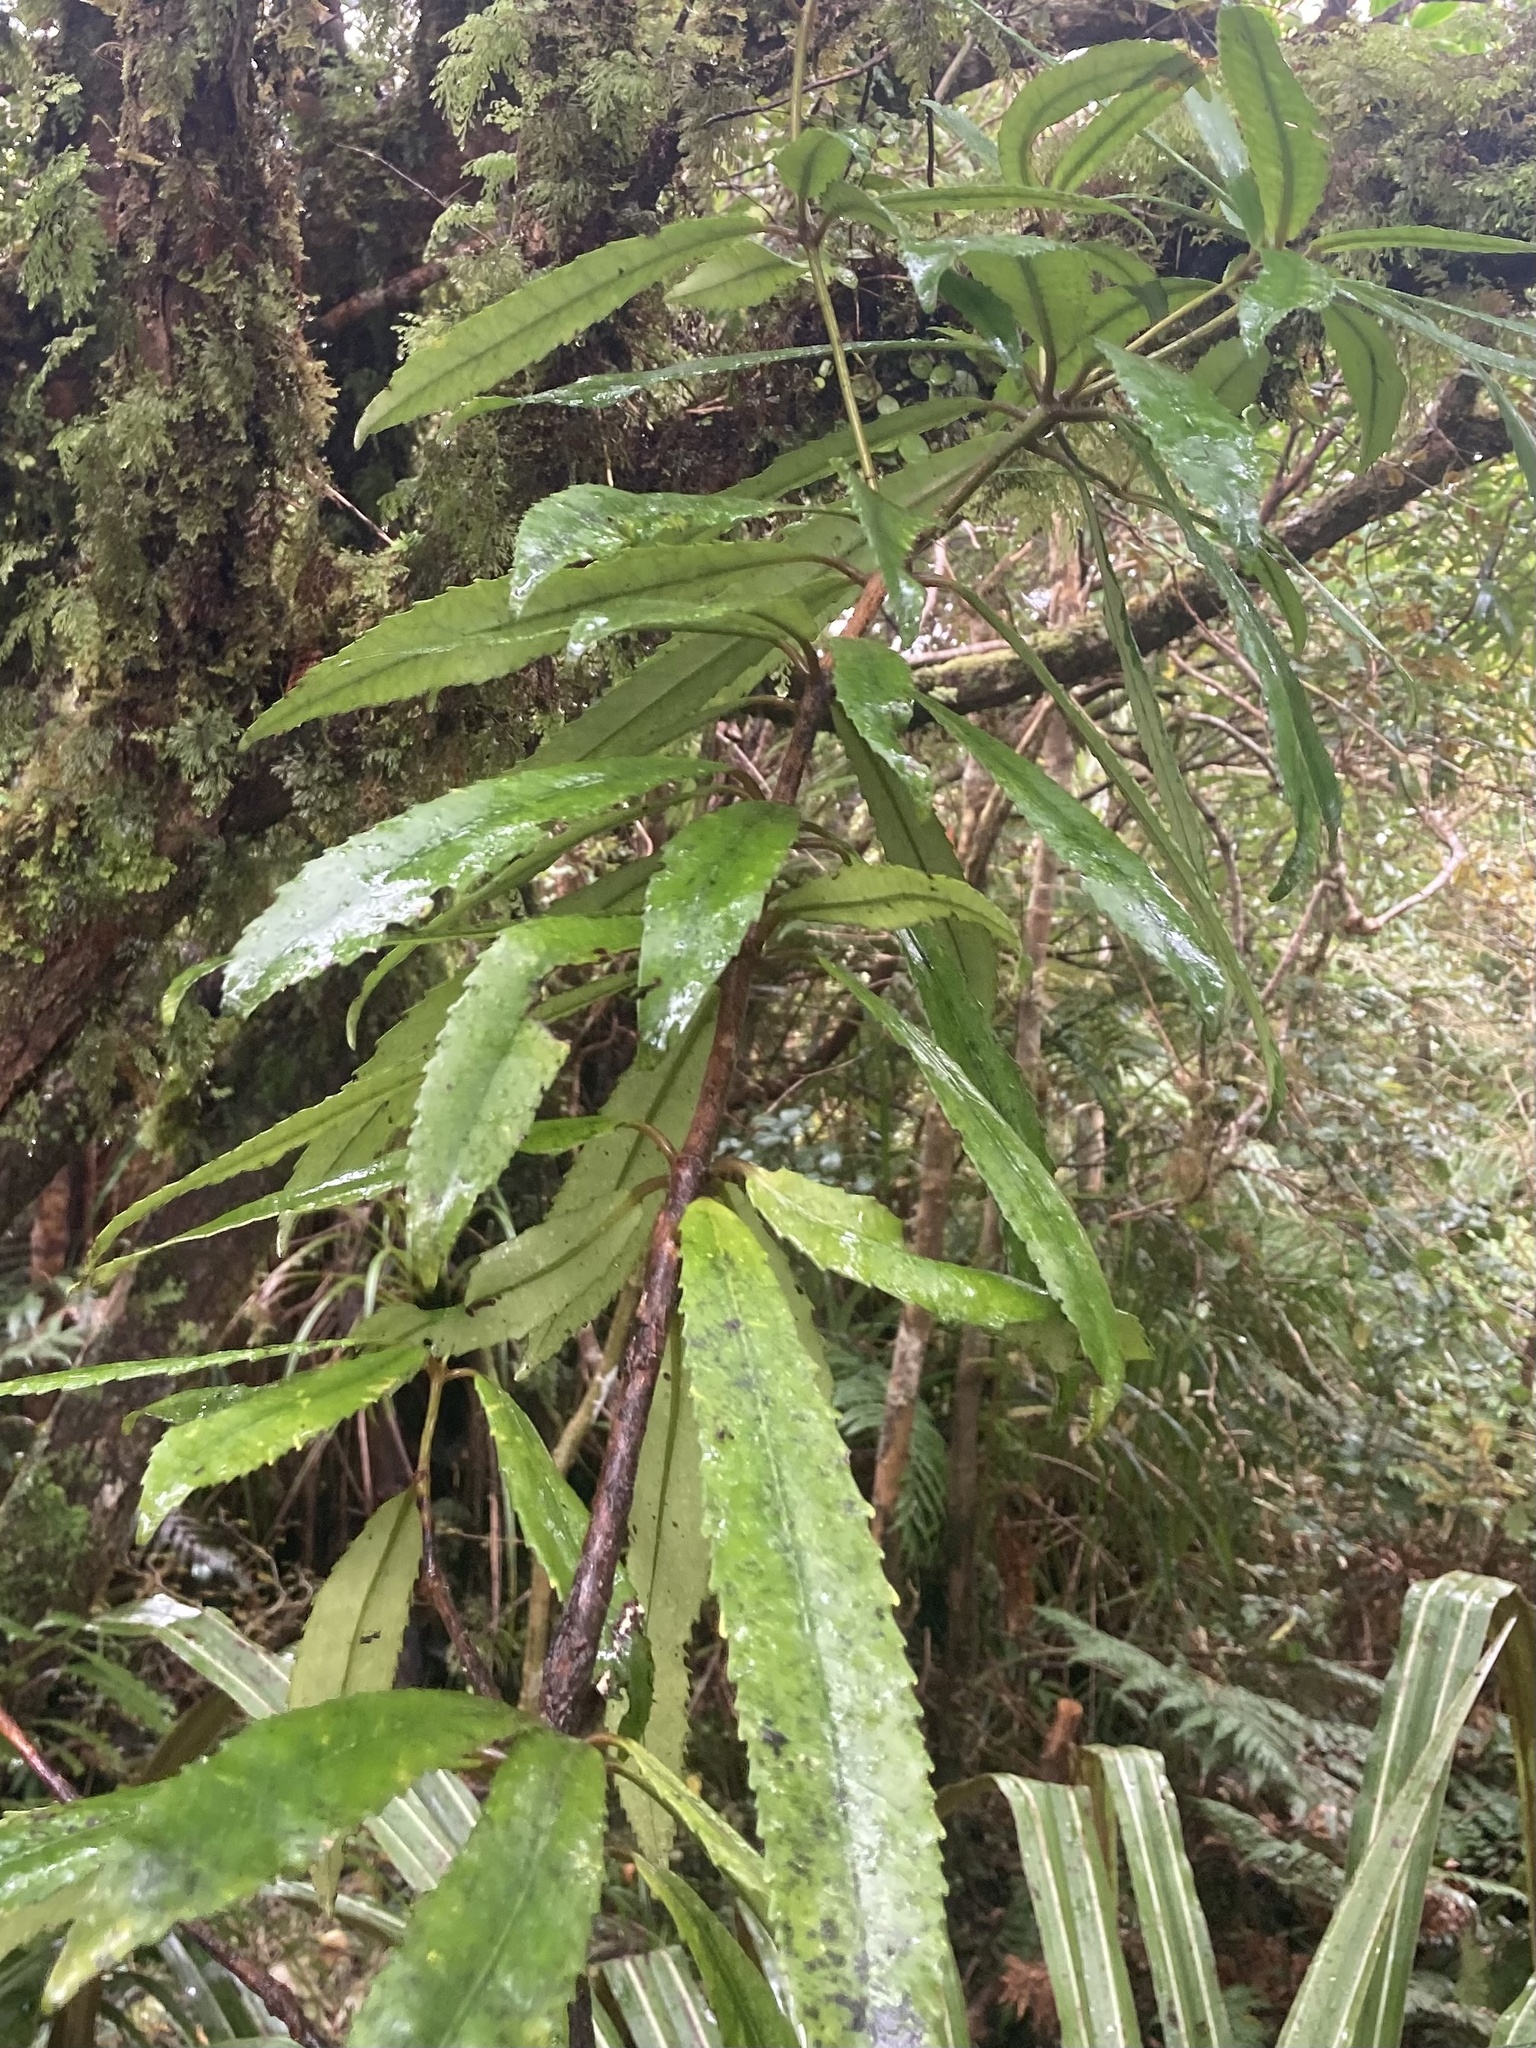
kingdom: Plantae
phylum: Tracheophyta
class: Magnoliopsida
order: Crossosomatales
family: Ixerbaceae
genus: Ixerba
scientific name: Ixerba brexioides
